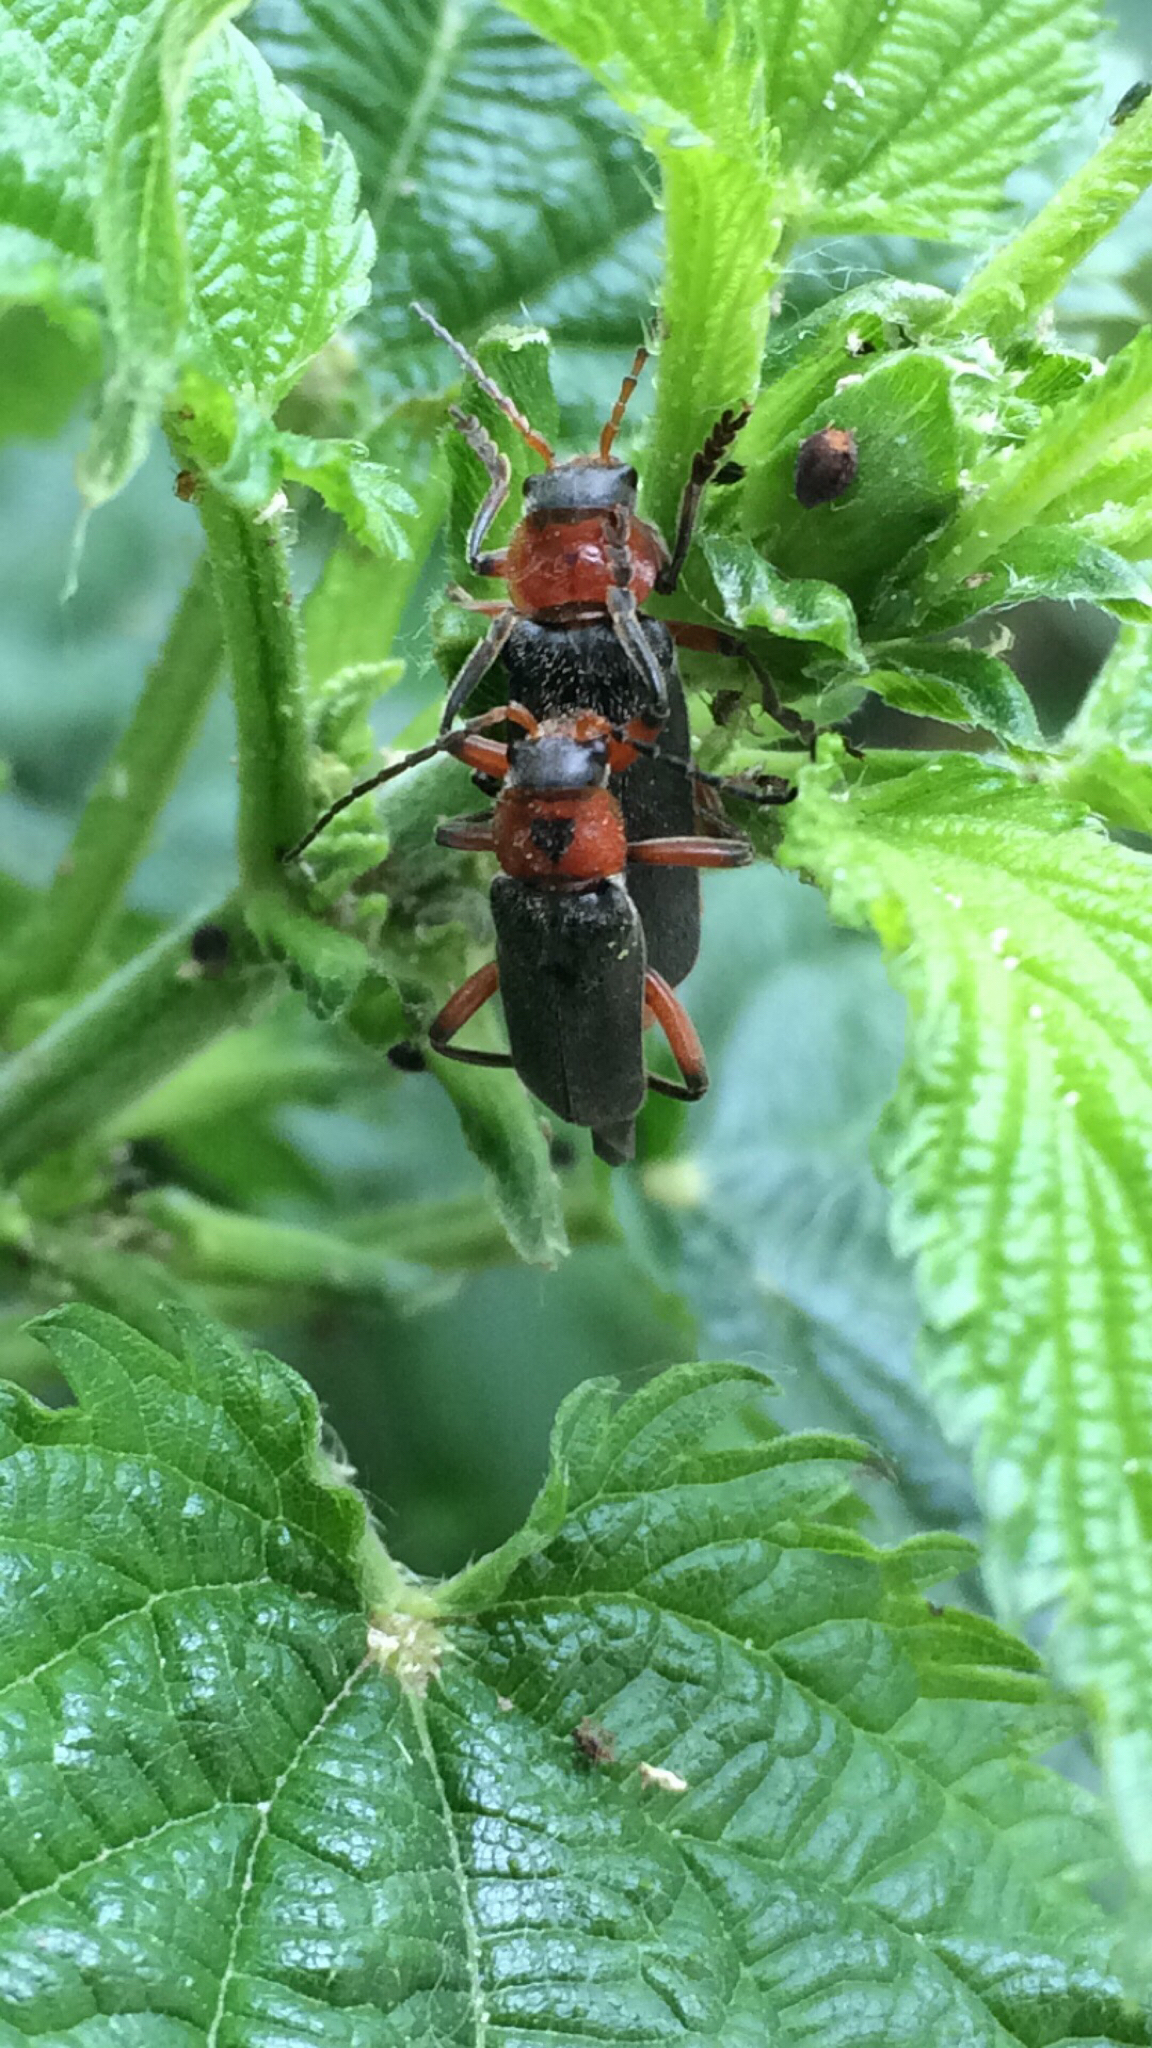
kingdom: Animalia
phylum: Arthropoda
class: Insecta
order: Coleoptera
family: Cantharidae
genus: Cantharis
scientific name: Cantharis rustica
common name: Soldier beetle
